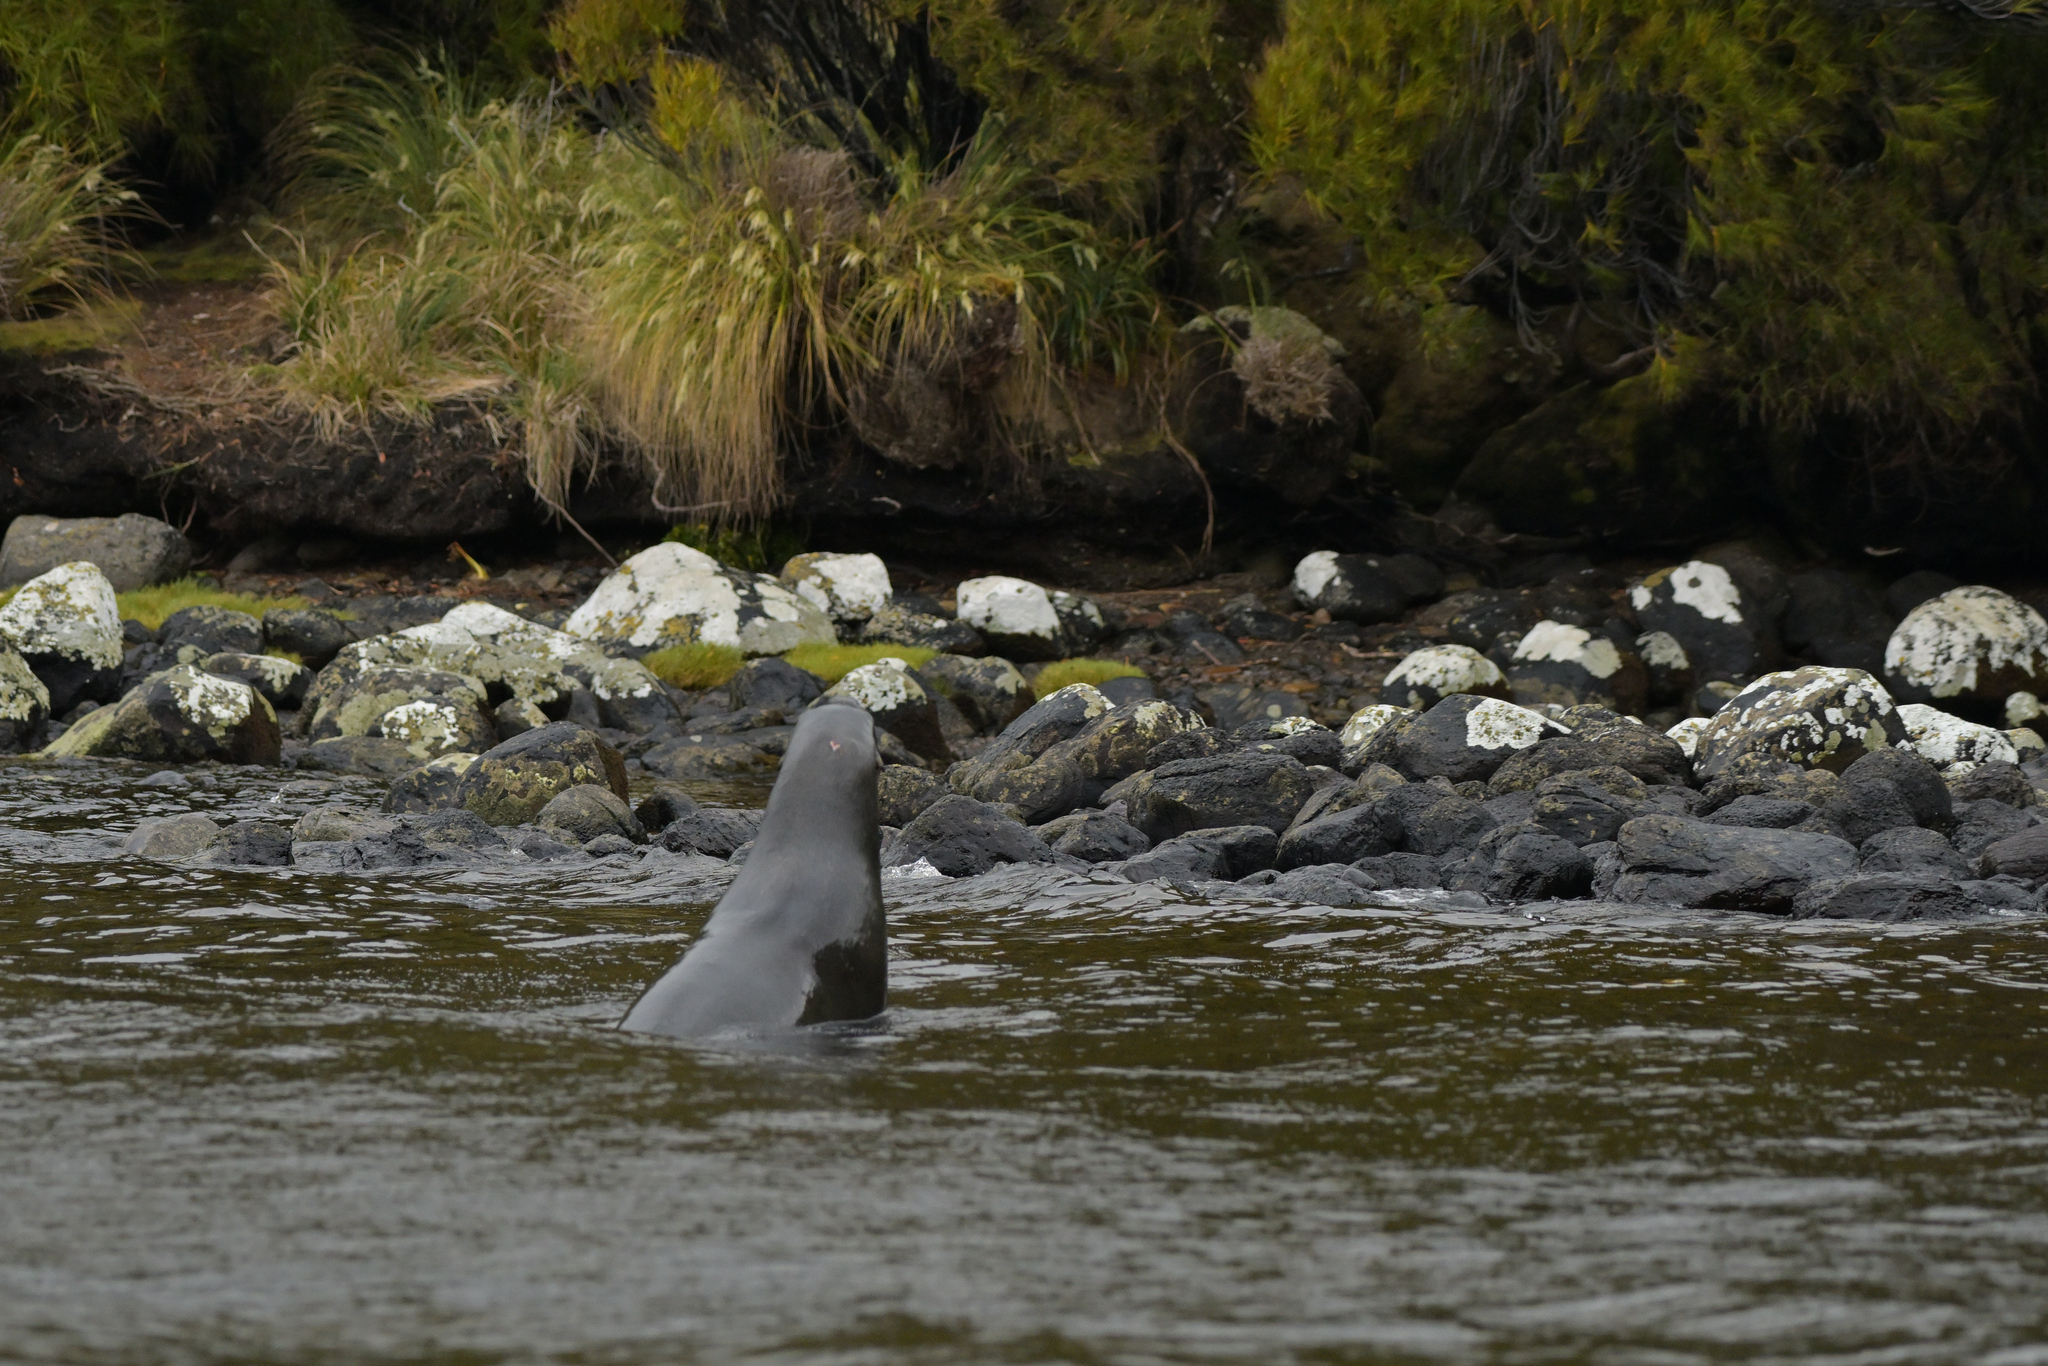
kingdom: Animalia
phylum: Chordata
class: Mammalia
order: Carnivora
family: Otariidae
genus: Phocarctos
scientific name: Phocarctos hookeri
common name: New zealand sea lion
